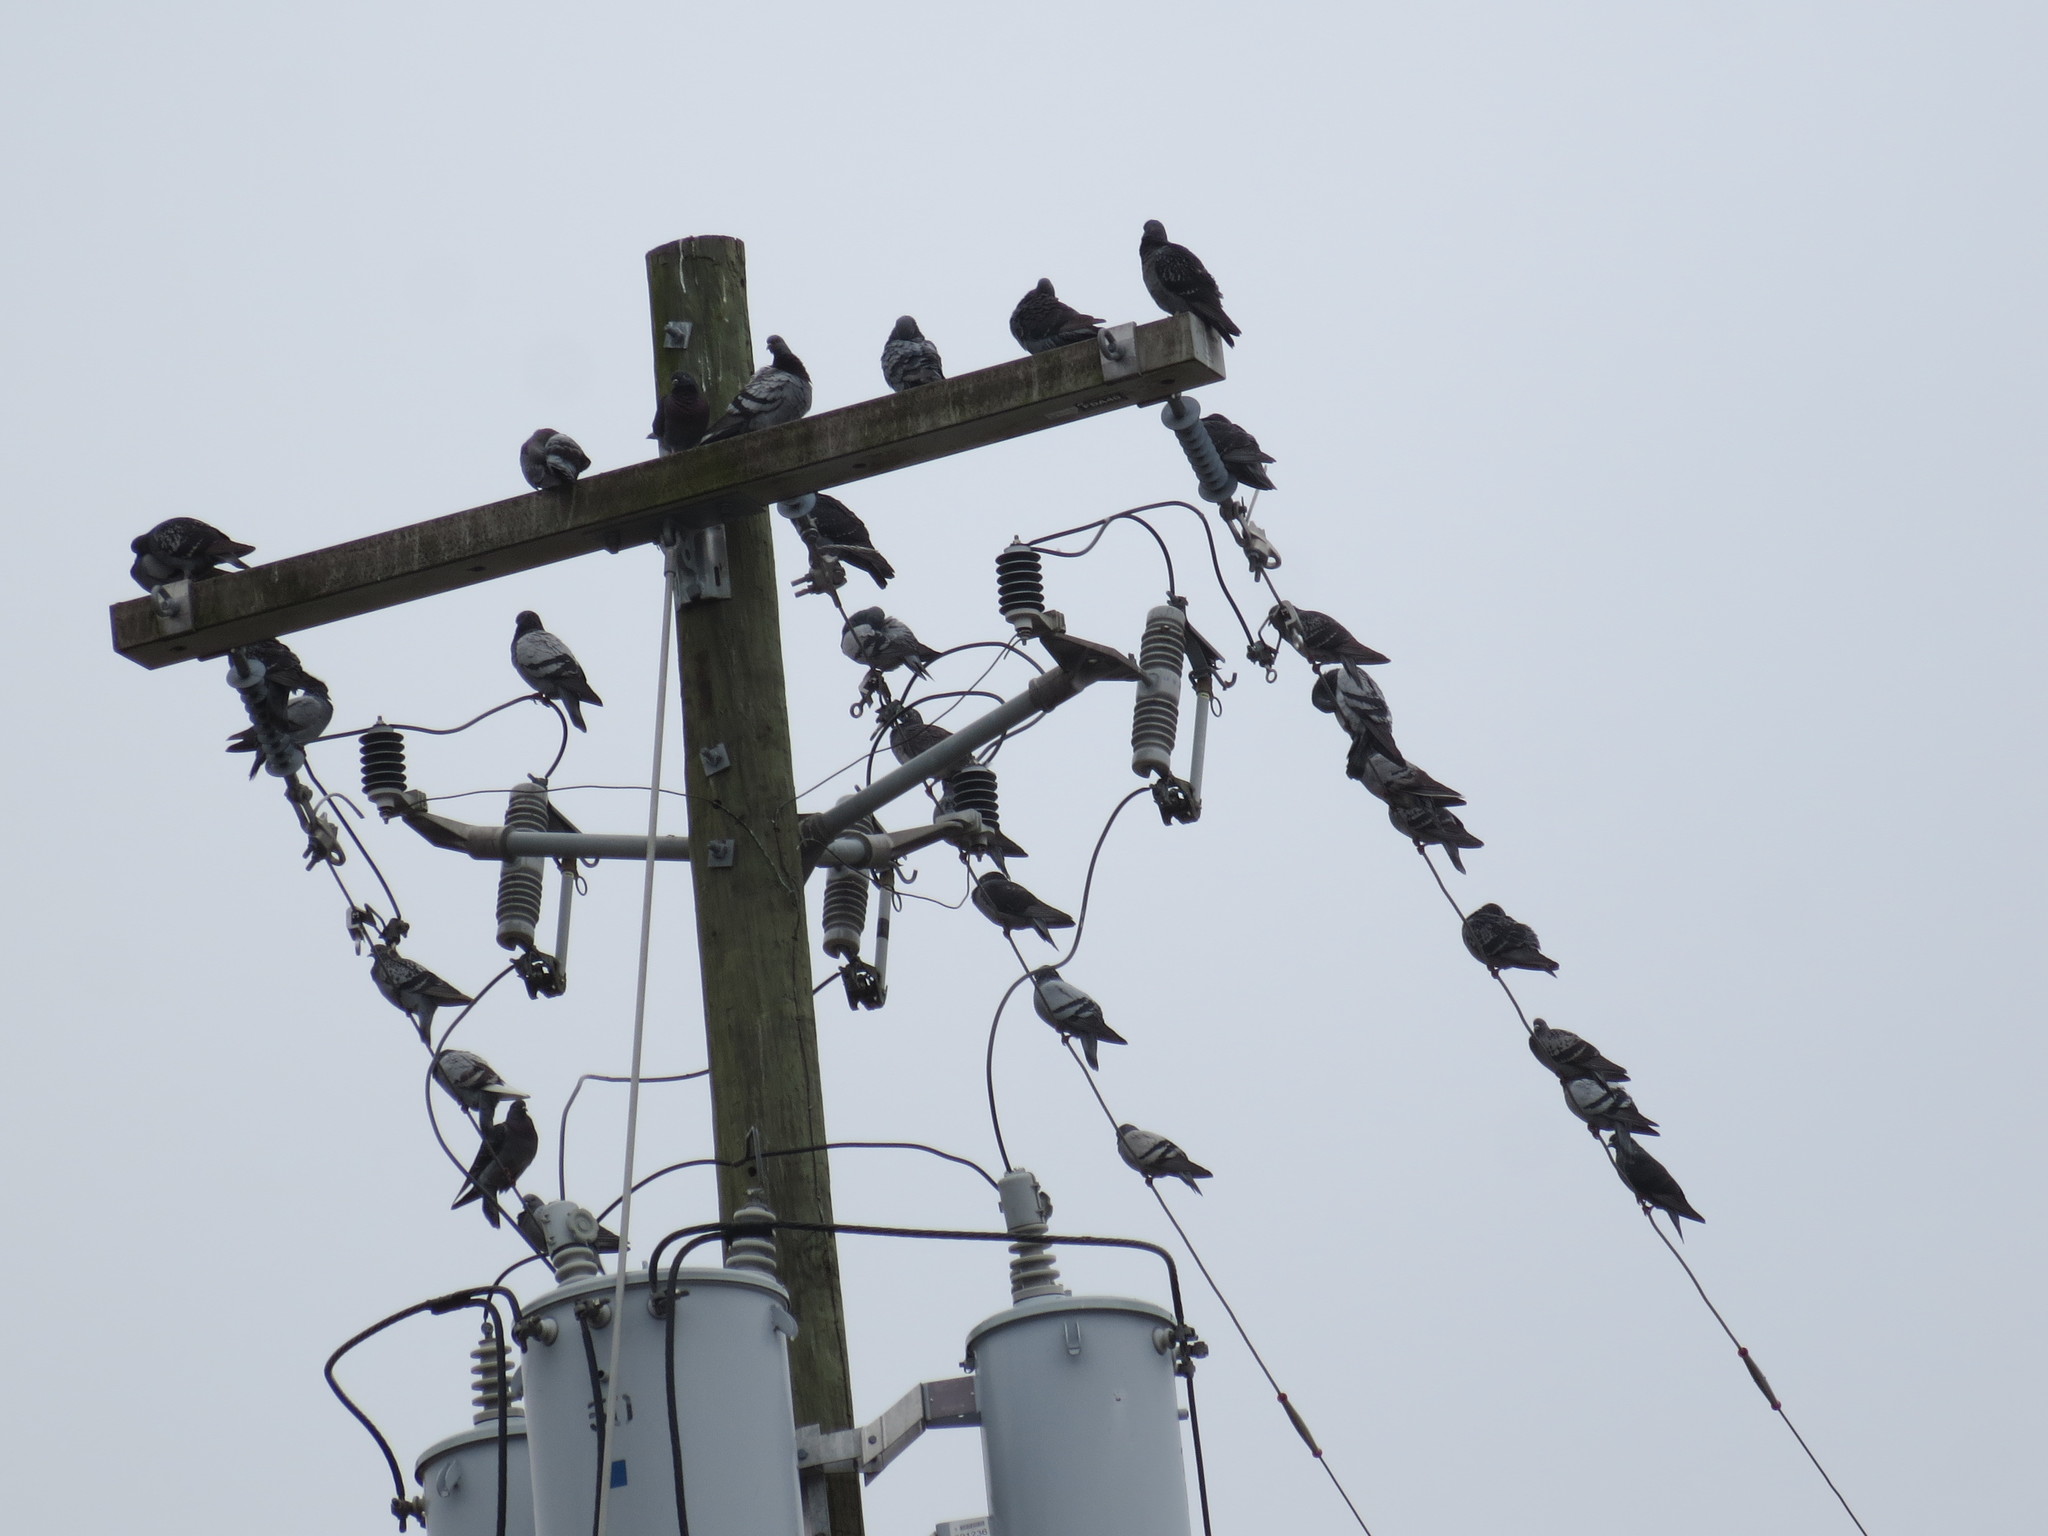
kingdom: Animalia
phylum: Chordata
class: Aves
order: Columbiformes
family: Columbidae
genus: Columba
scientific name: Columba livia
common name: Rock pigeon
